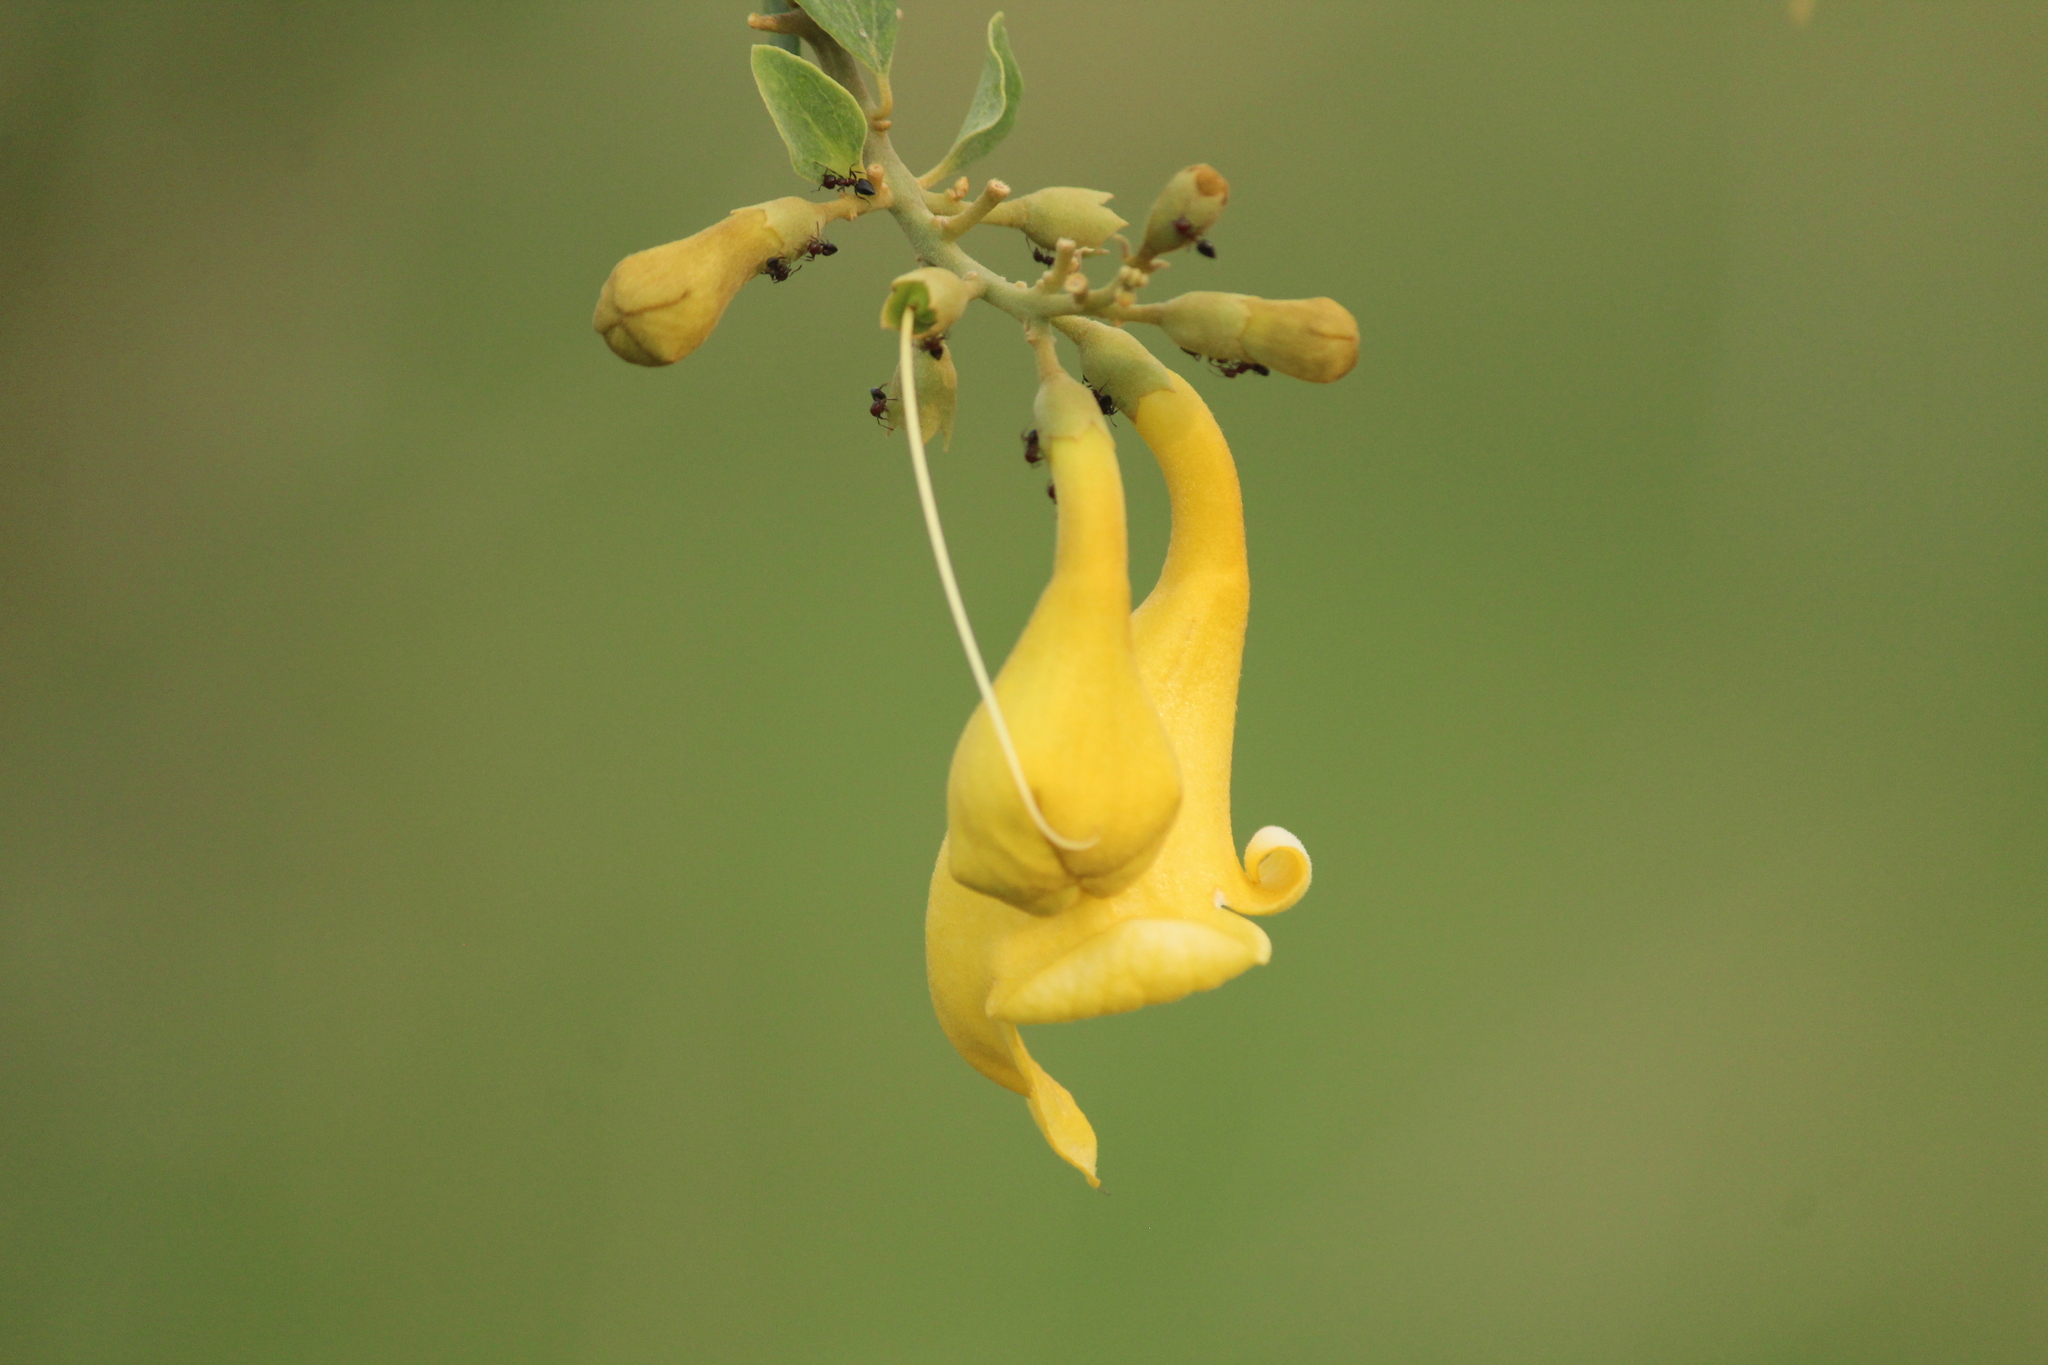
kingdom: Plantae
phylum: Tracheophyta
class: Magnoliopsida
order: Lamiales
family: Lamiaceae
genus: Gmelina
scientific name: Gmelina asiatica
